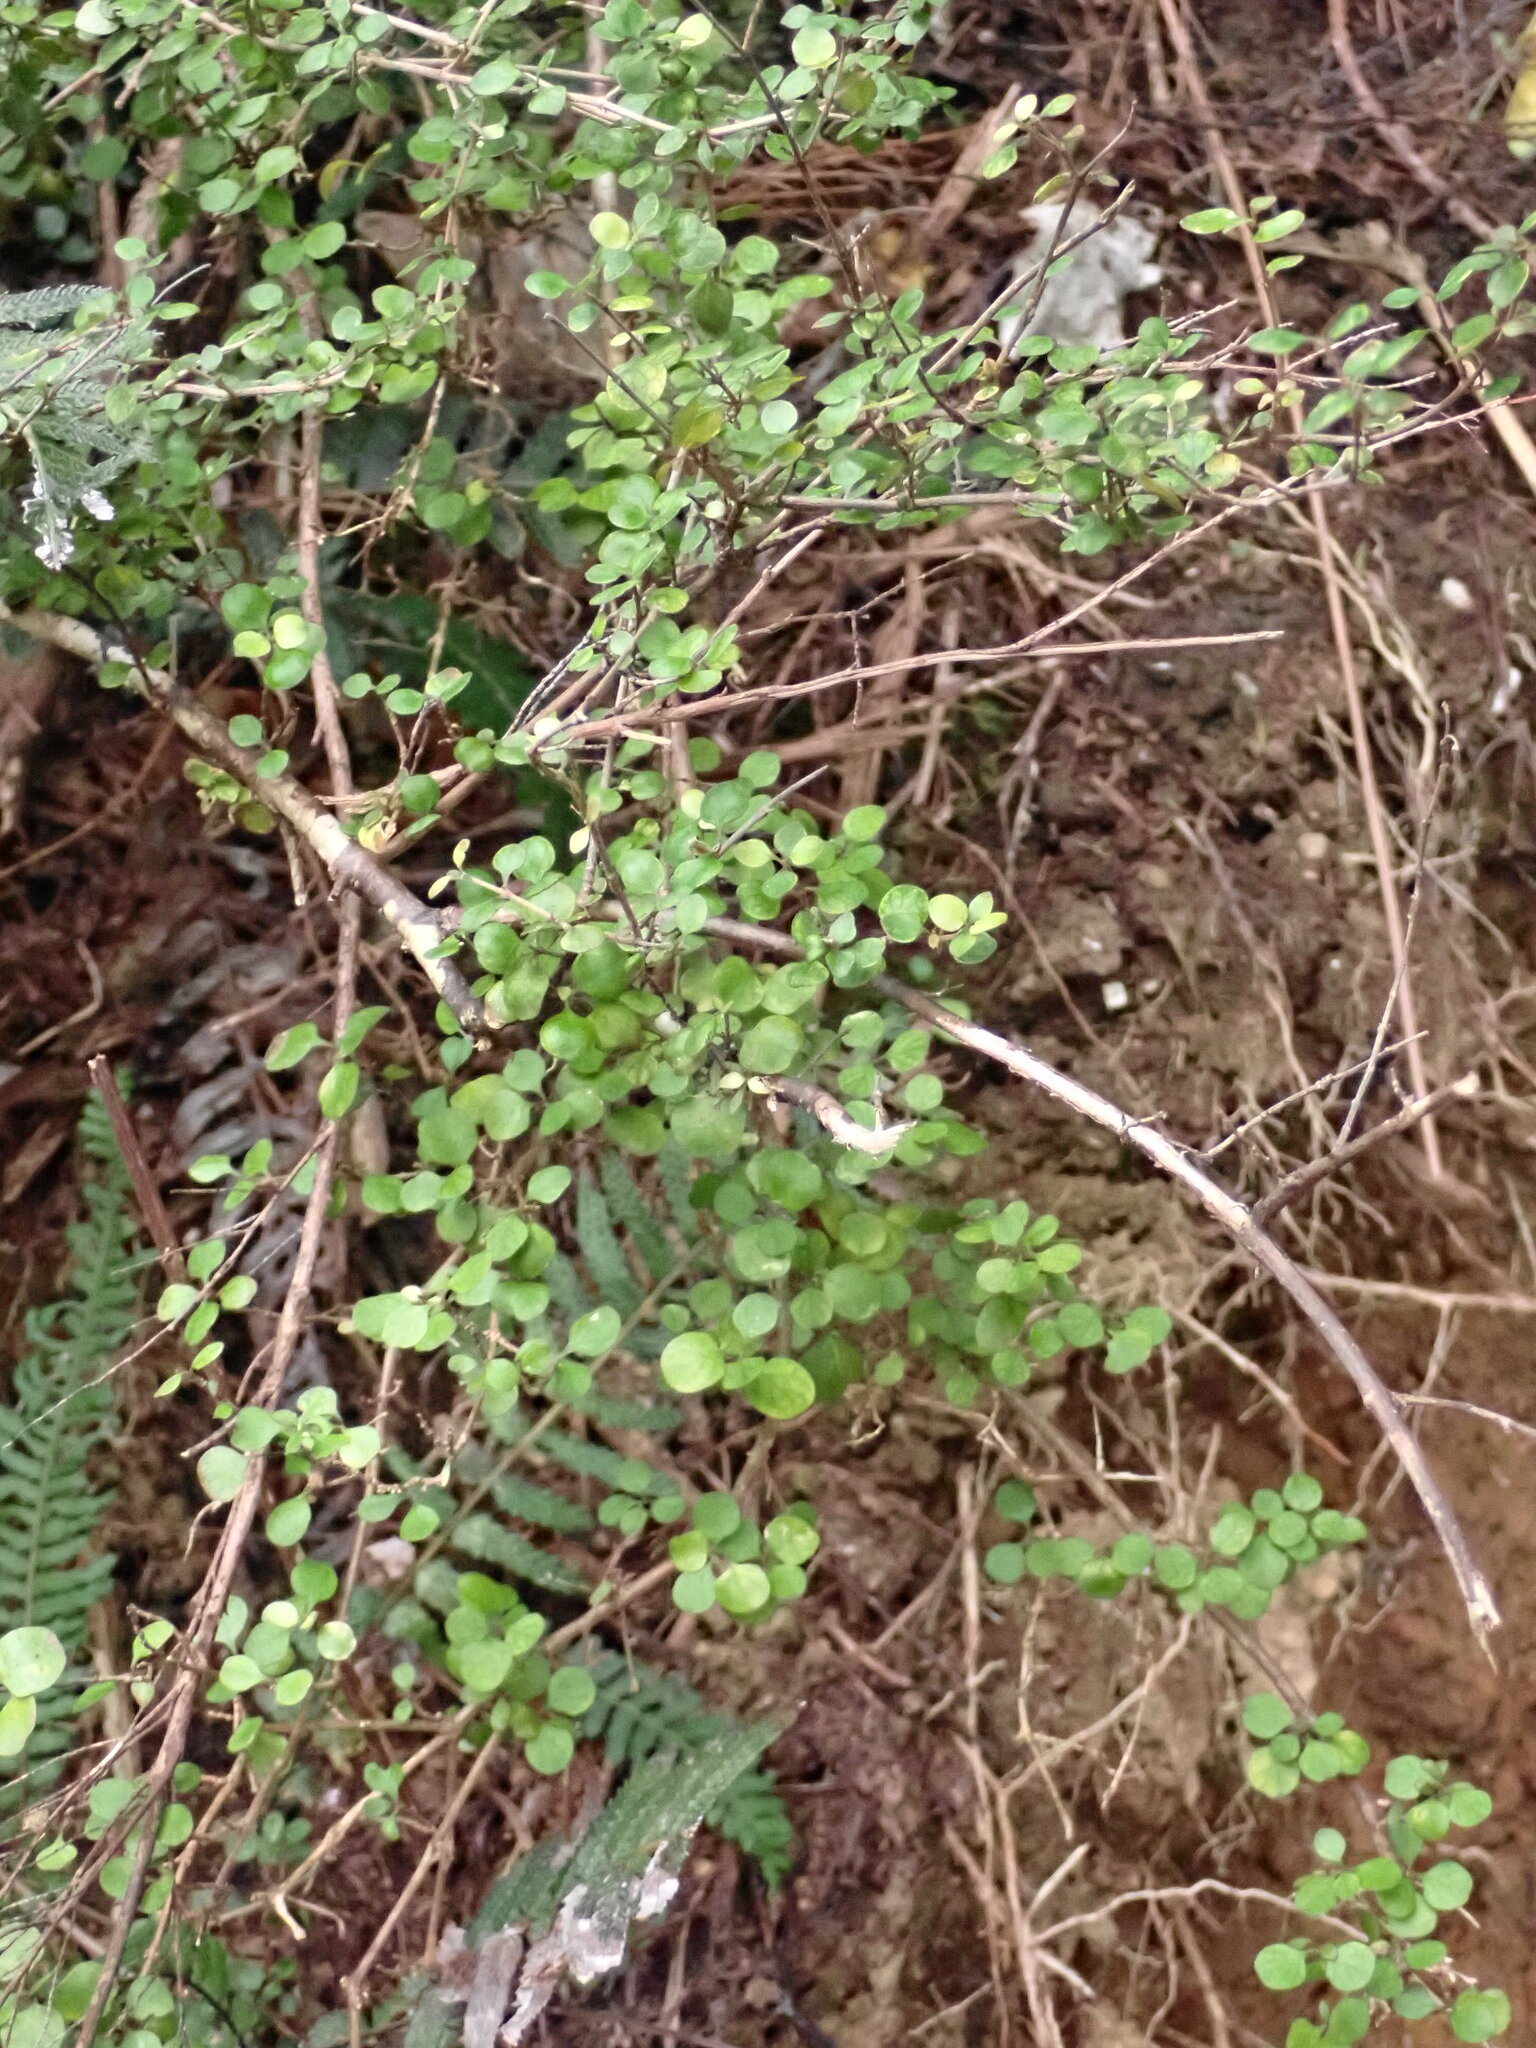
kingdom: Plantae
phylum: Tracheophyta
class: Magnoliopsida
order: Gentianales
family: Rubiaceae
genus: Coprosma
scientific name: Coprosma rhamnoides
